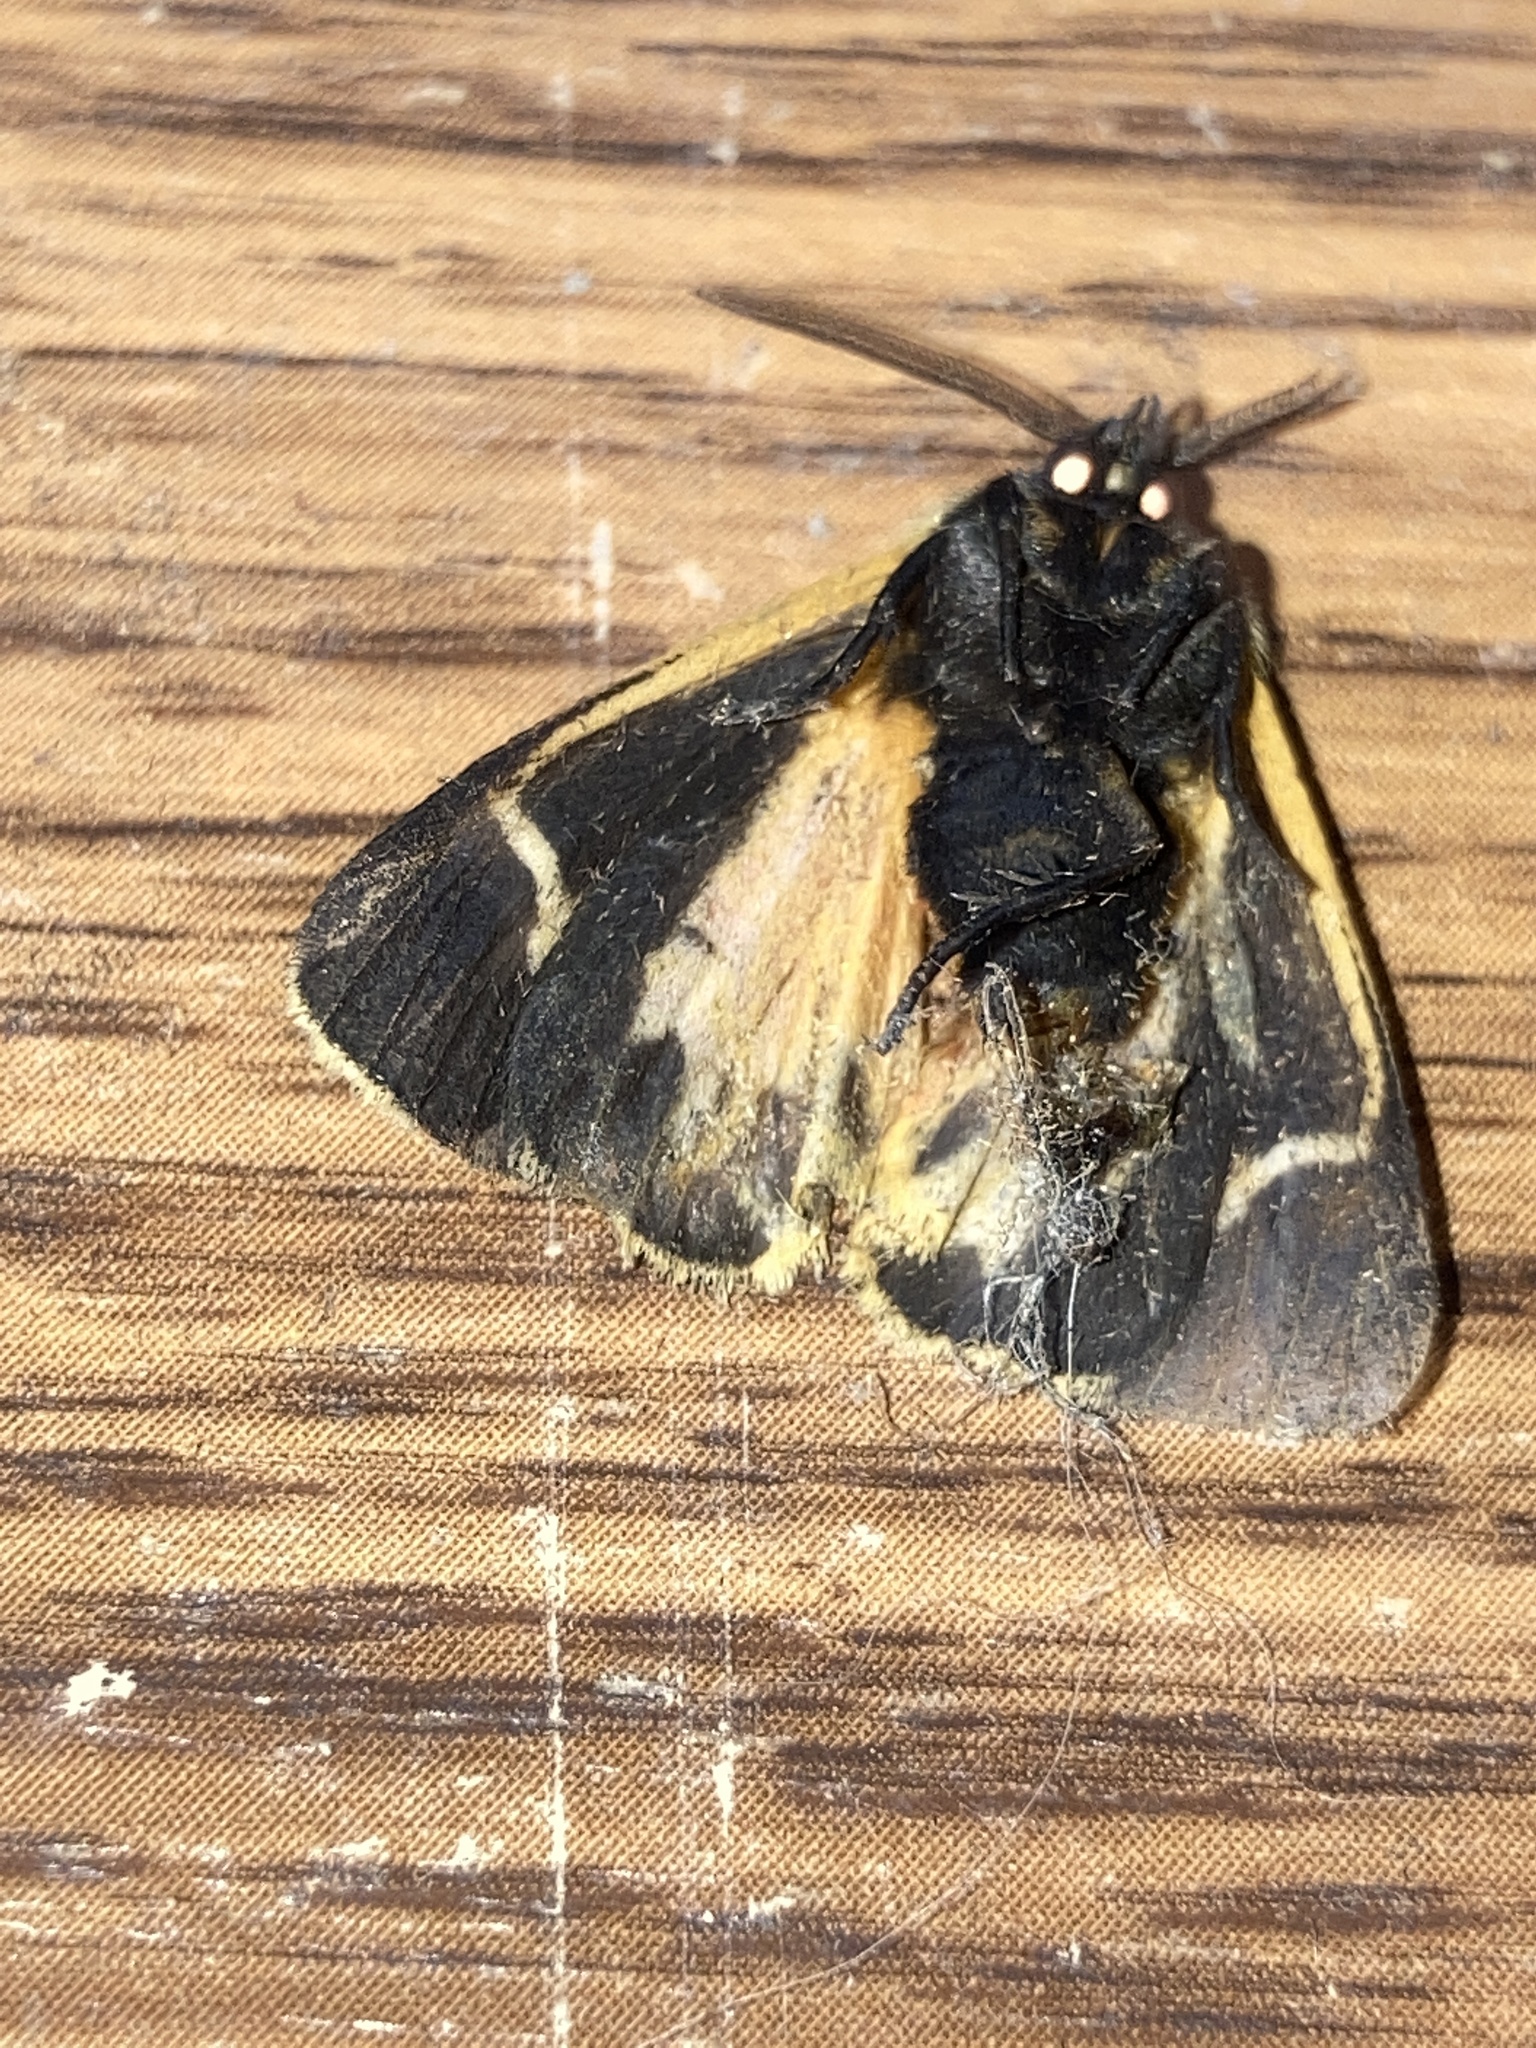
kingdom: Animalia
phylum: Arthropoda
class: Insecta
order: Lepidoptera
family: Erebidae
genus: Apantesis
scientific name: Apantesis nais
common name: Nais tiger moth
